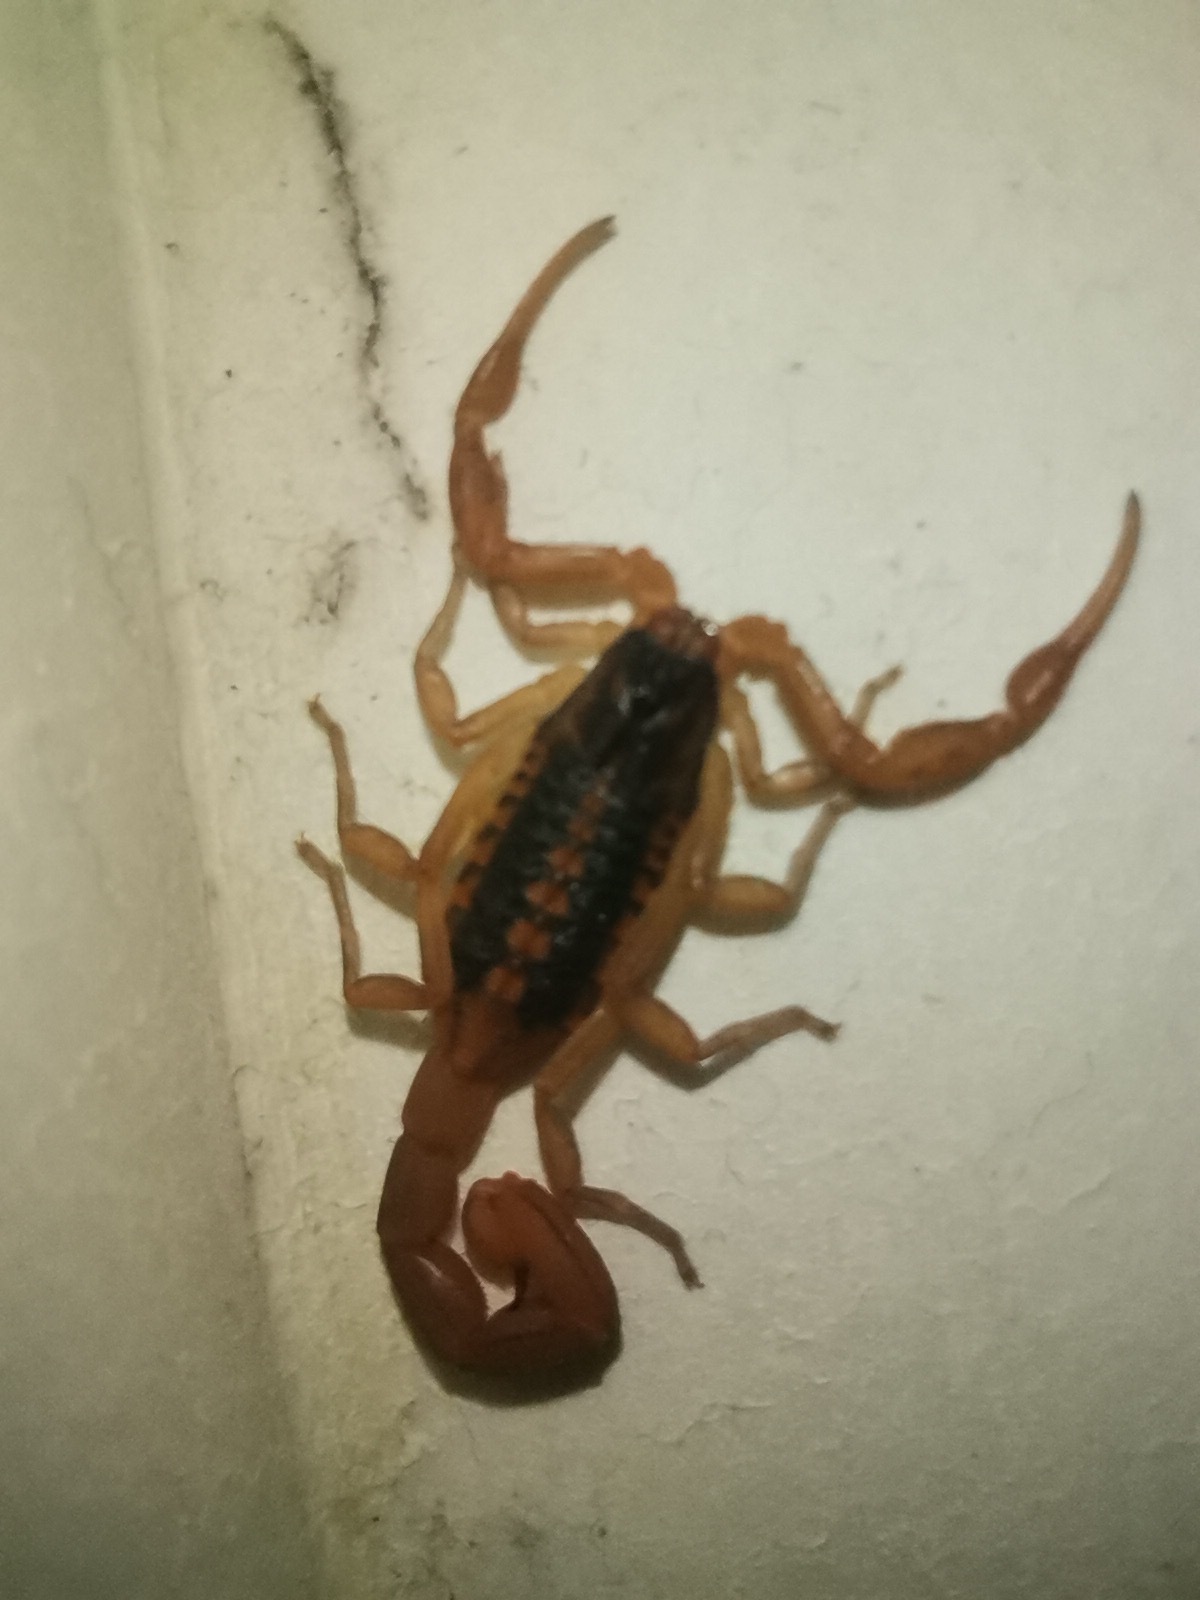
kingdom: Animalia
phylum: Arthropoda
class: Arachnida
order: Scorpiones
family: Buthidae
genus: Centruroides
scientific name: Centruroides ornatus
